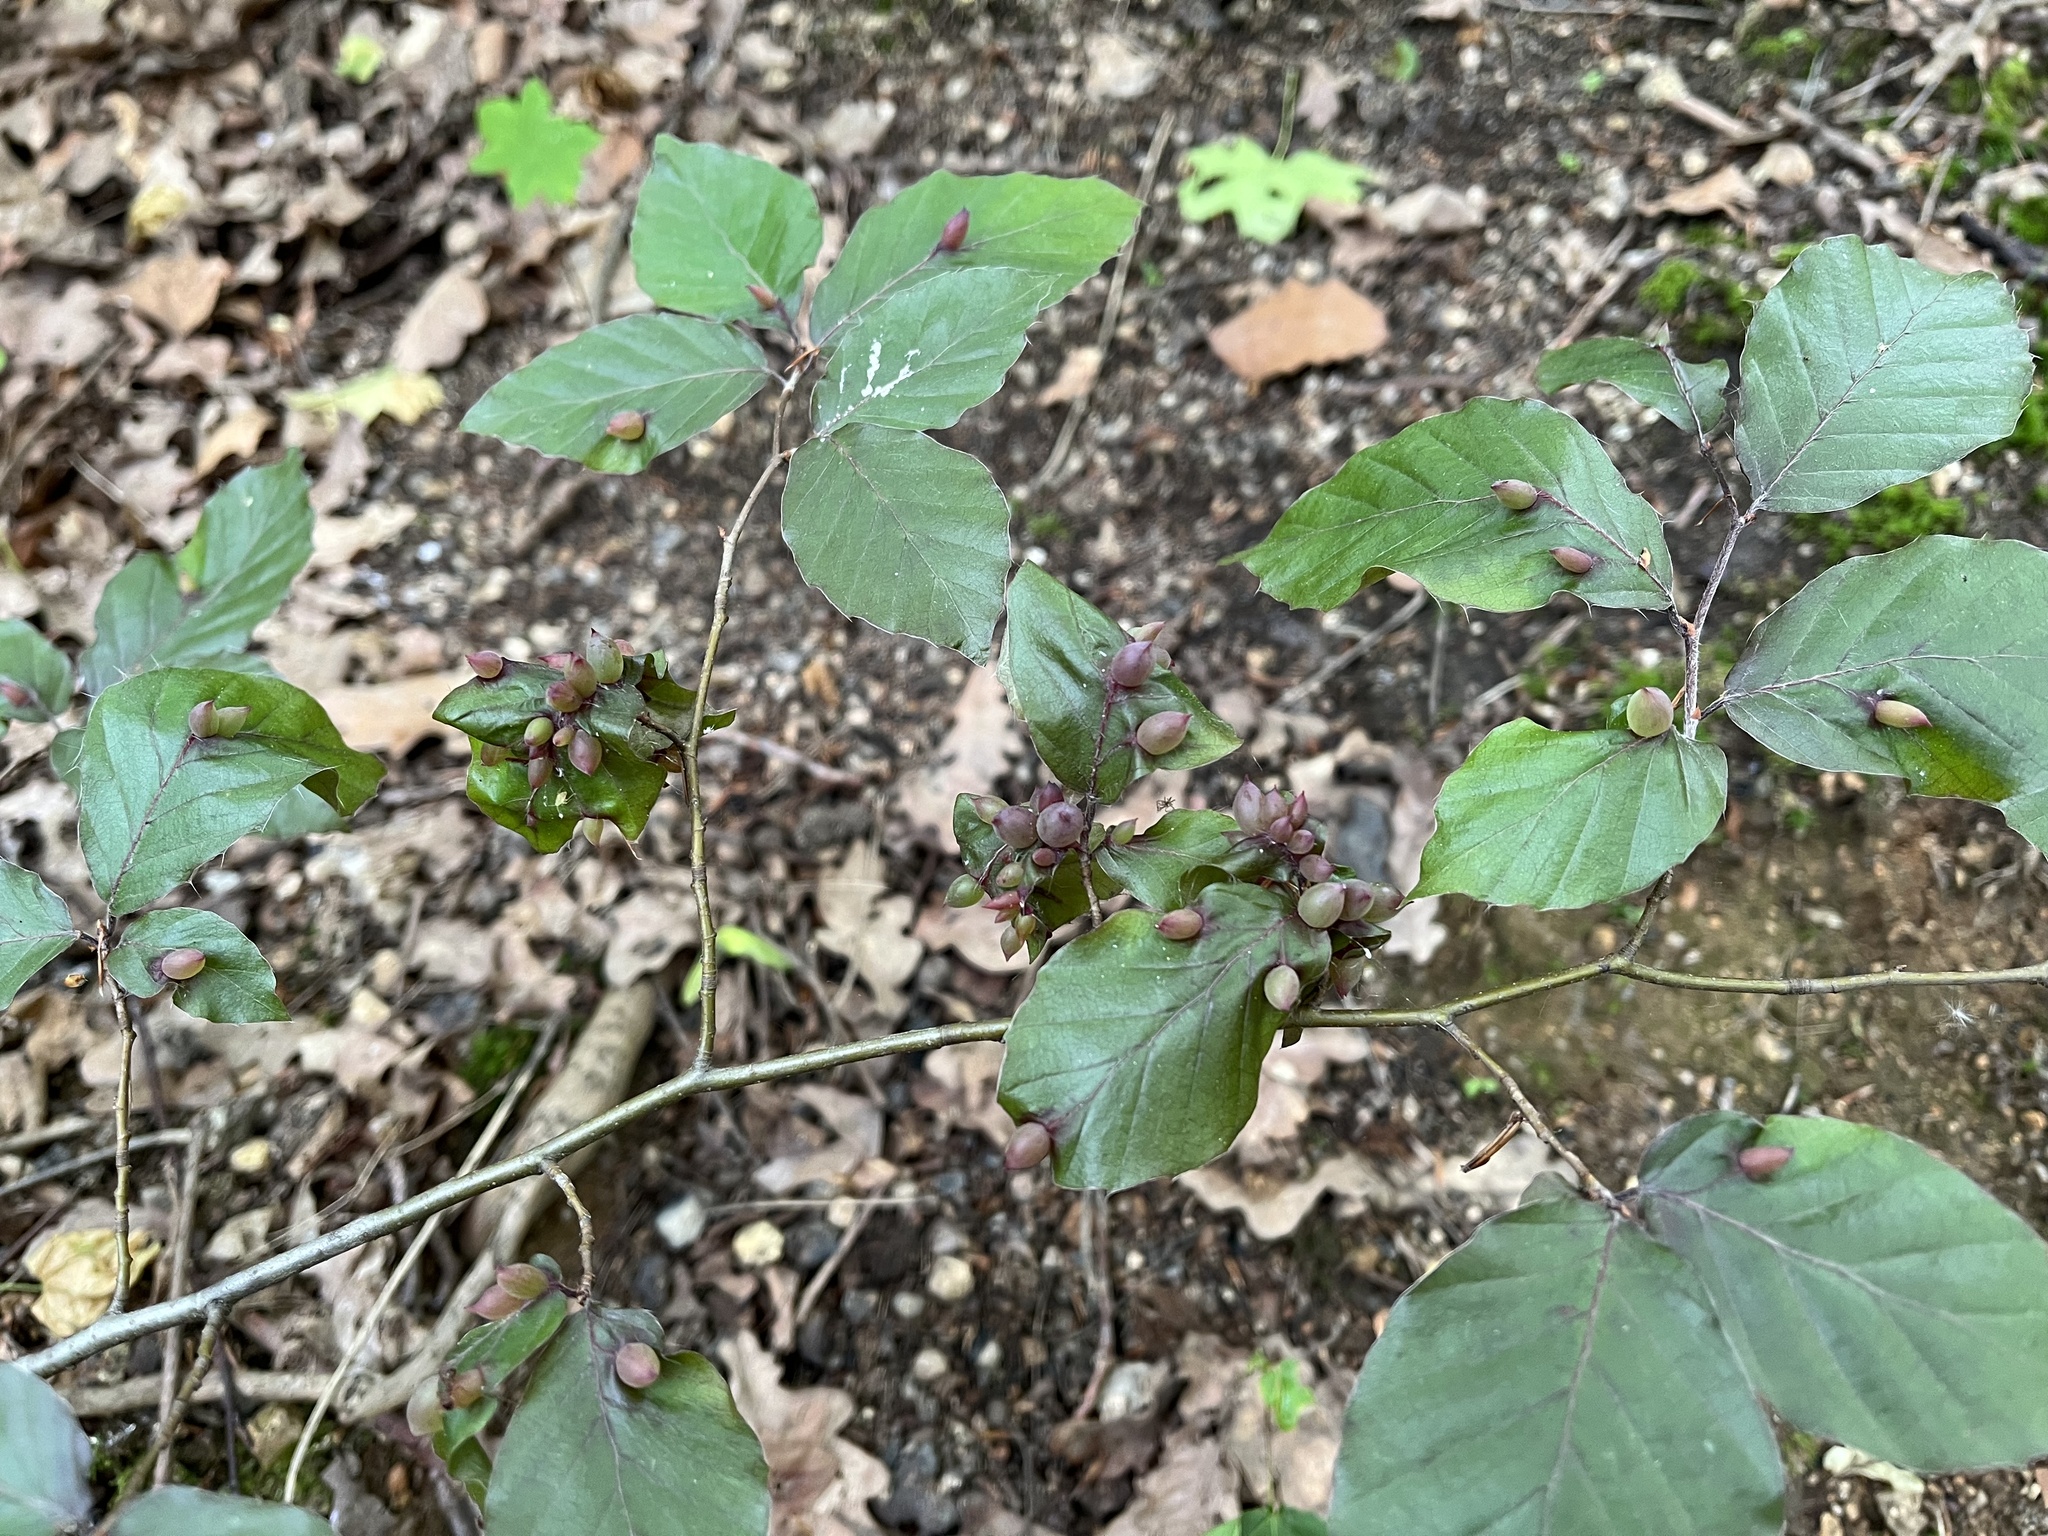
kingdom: Animalia
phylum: Arthropoda
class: Insecta
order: Diptera
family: Cecidomyiidae
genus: Mikiola
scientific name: Mikiola fagi
